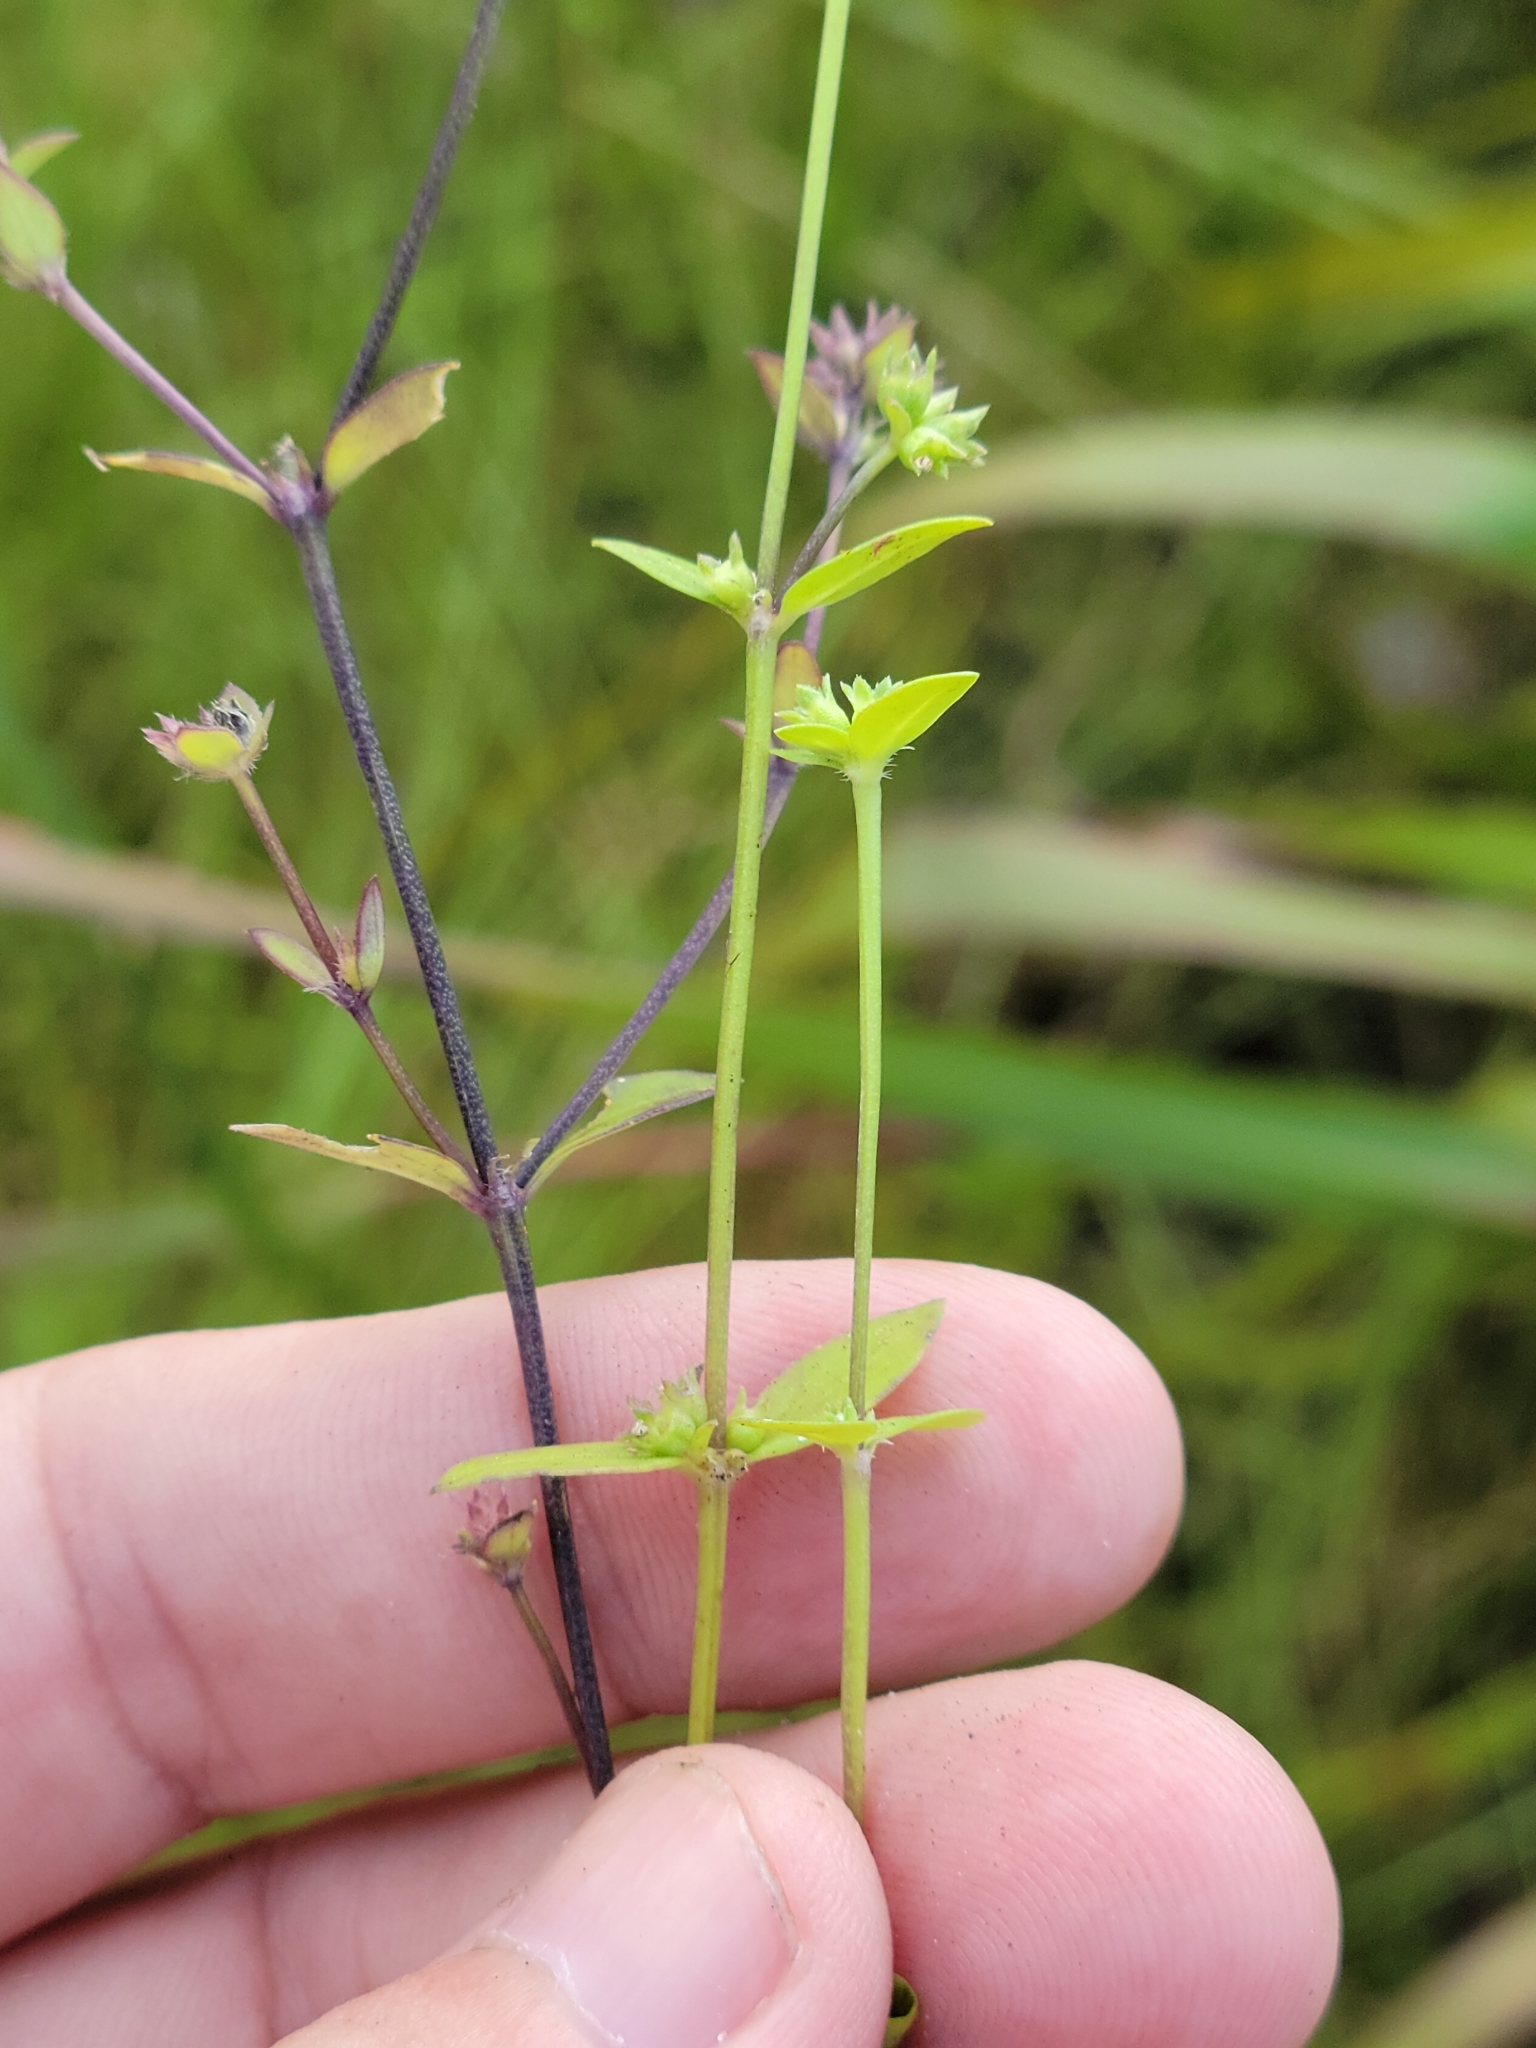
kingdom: Plantae
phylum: Tracheophyta
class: Magnoliopsida
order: Gentianales
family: Rubiaceae
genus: Edrastima
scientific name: Edrastima uniflora
